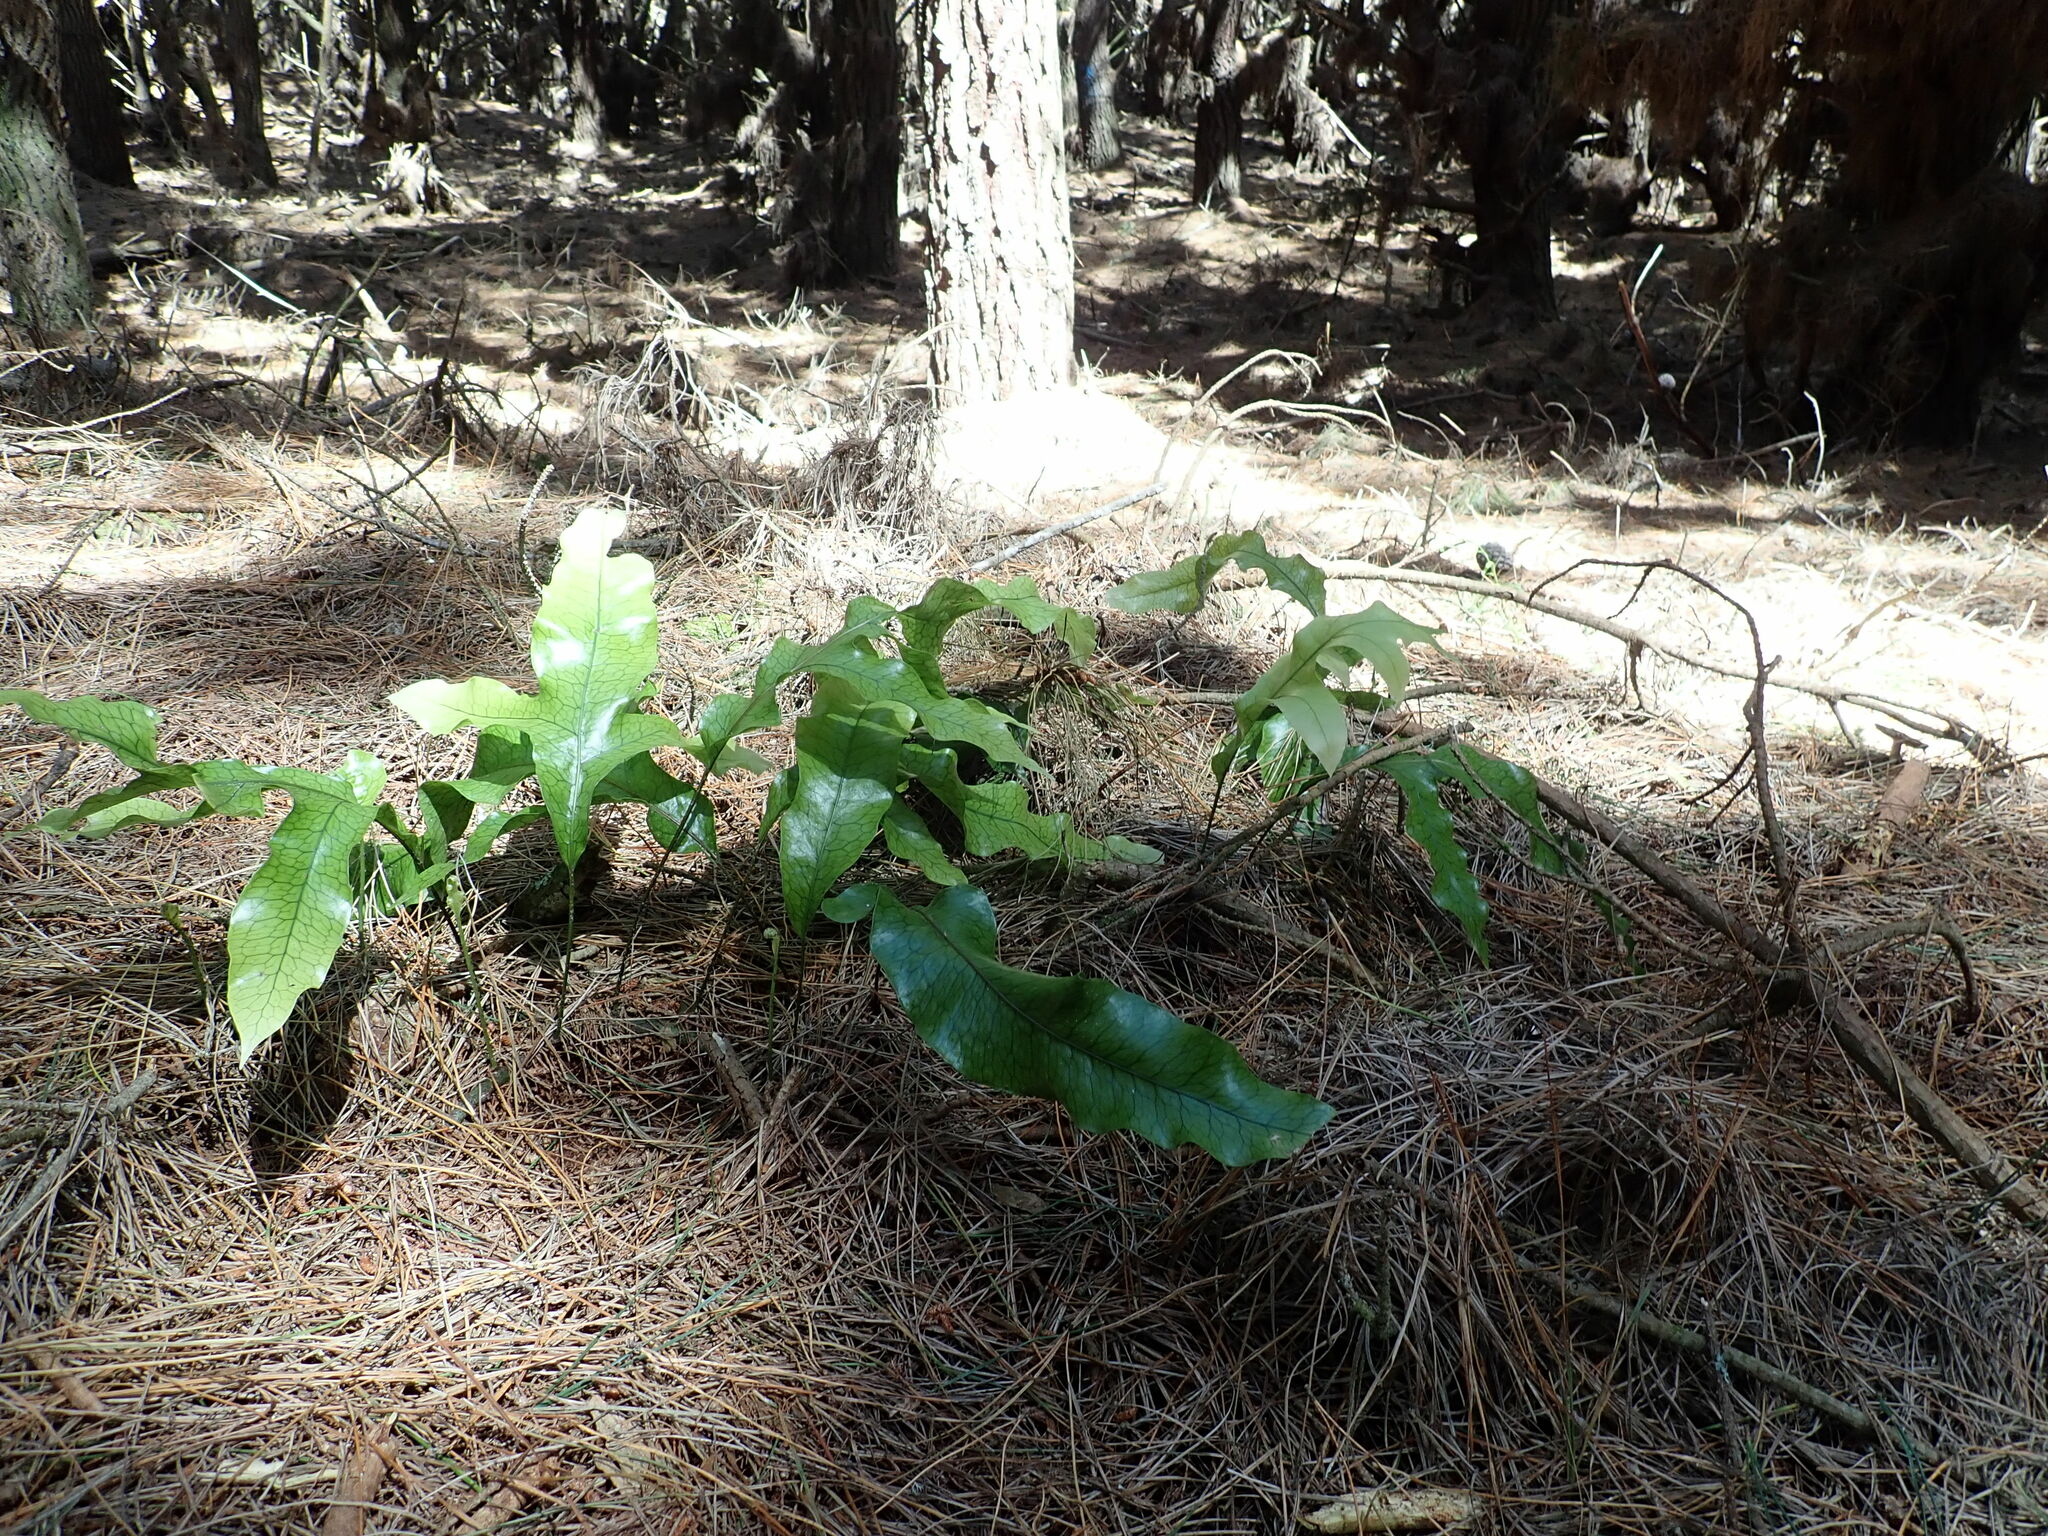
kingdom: Plantae
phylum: Tracheophyta
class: Polypodiopsida
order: Polypodiales
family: Polypodiaceae
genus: Lecanopteris
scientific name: Lecanopteris pustulata
